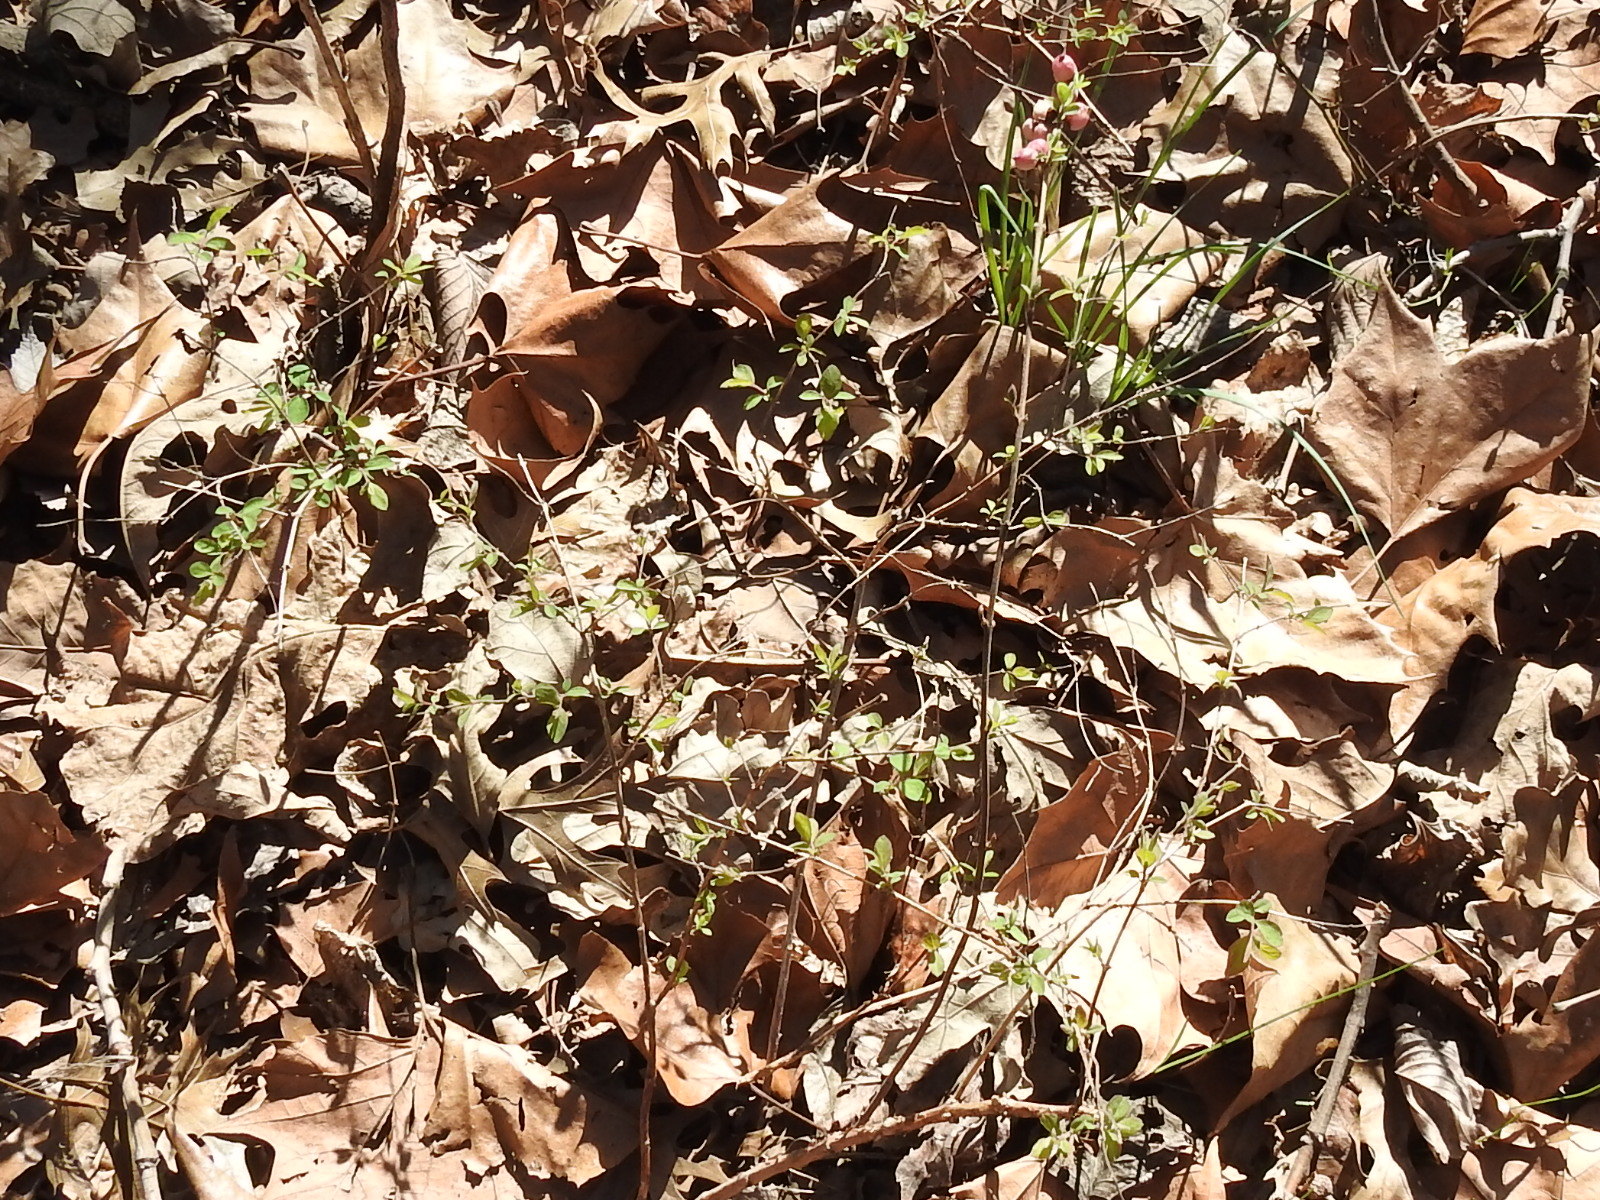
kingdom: Plantae
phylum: Tracheophyta
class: Magnoliopsida
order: Dipsacales
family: Caprifoliaceae
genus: Symphoricarpos
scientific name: Symphoricarpos orbiculatus
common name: Coralberry
